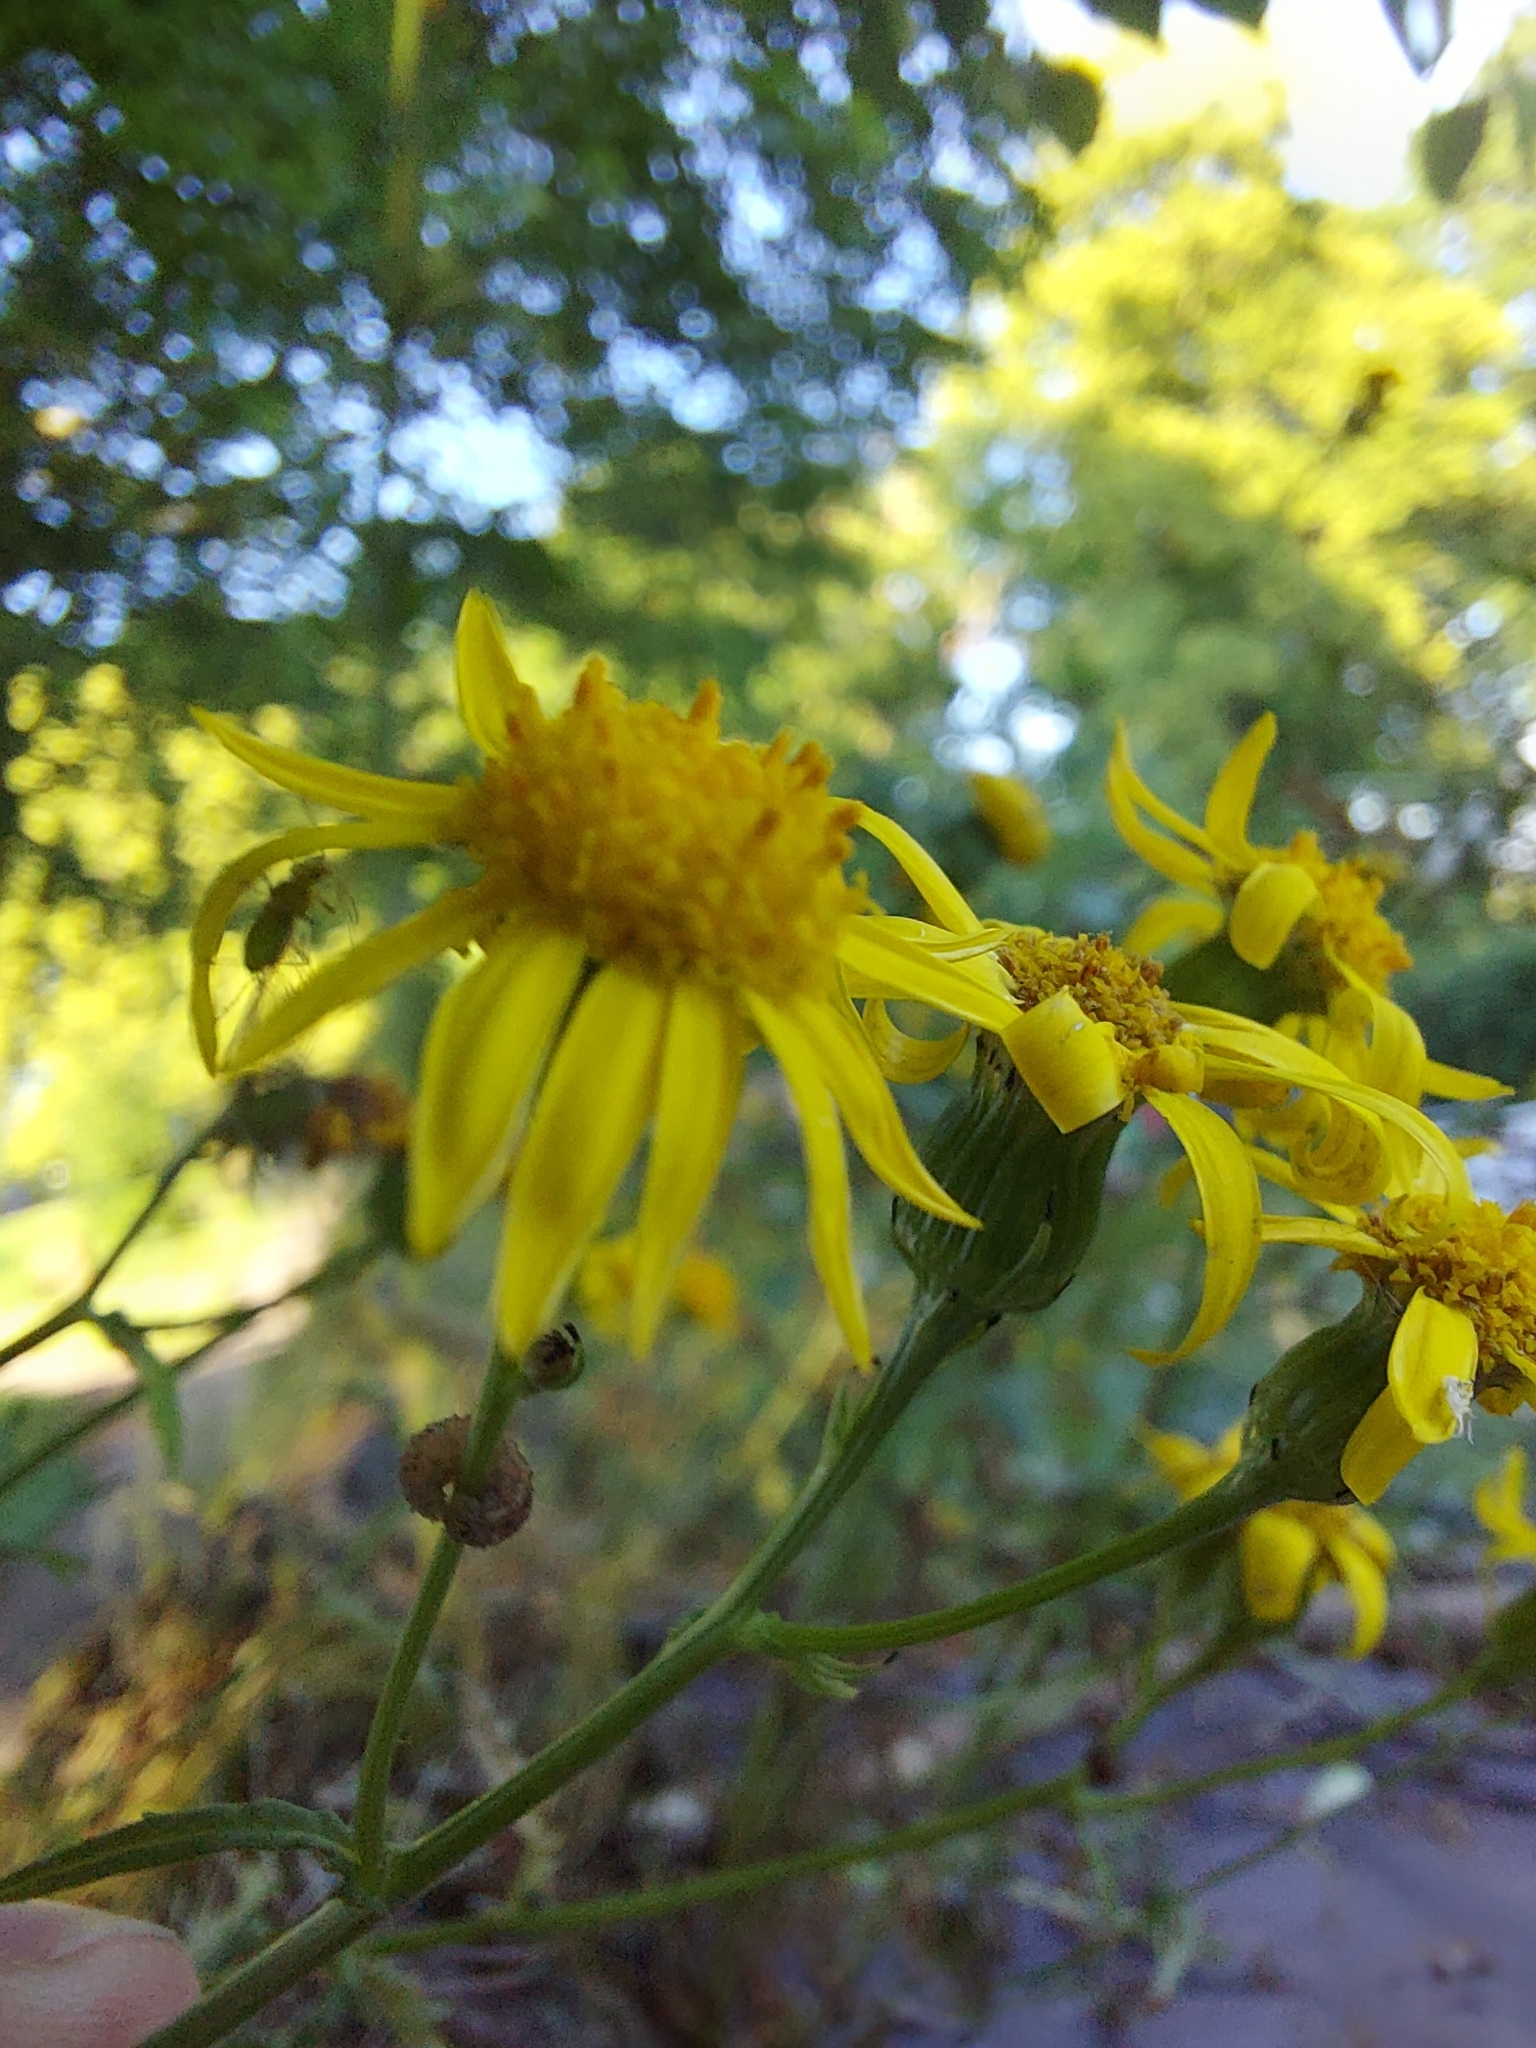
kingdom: Plantae
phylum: Tracheophyta
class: Magnoliopsida
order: Asterales
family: Asteraceae
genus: Senecio
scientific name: Senecio squalidus
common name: Oxford ragwort
